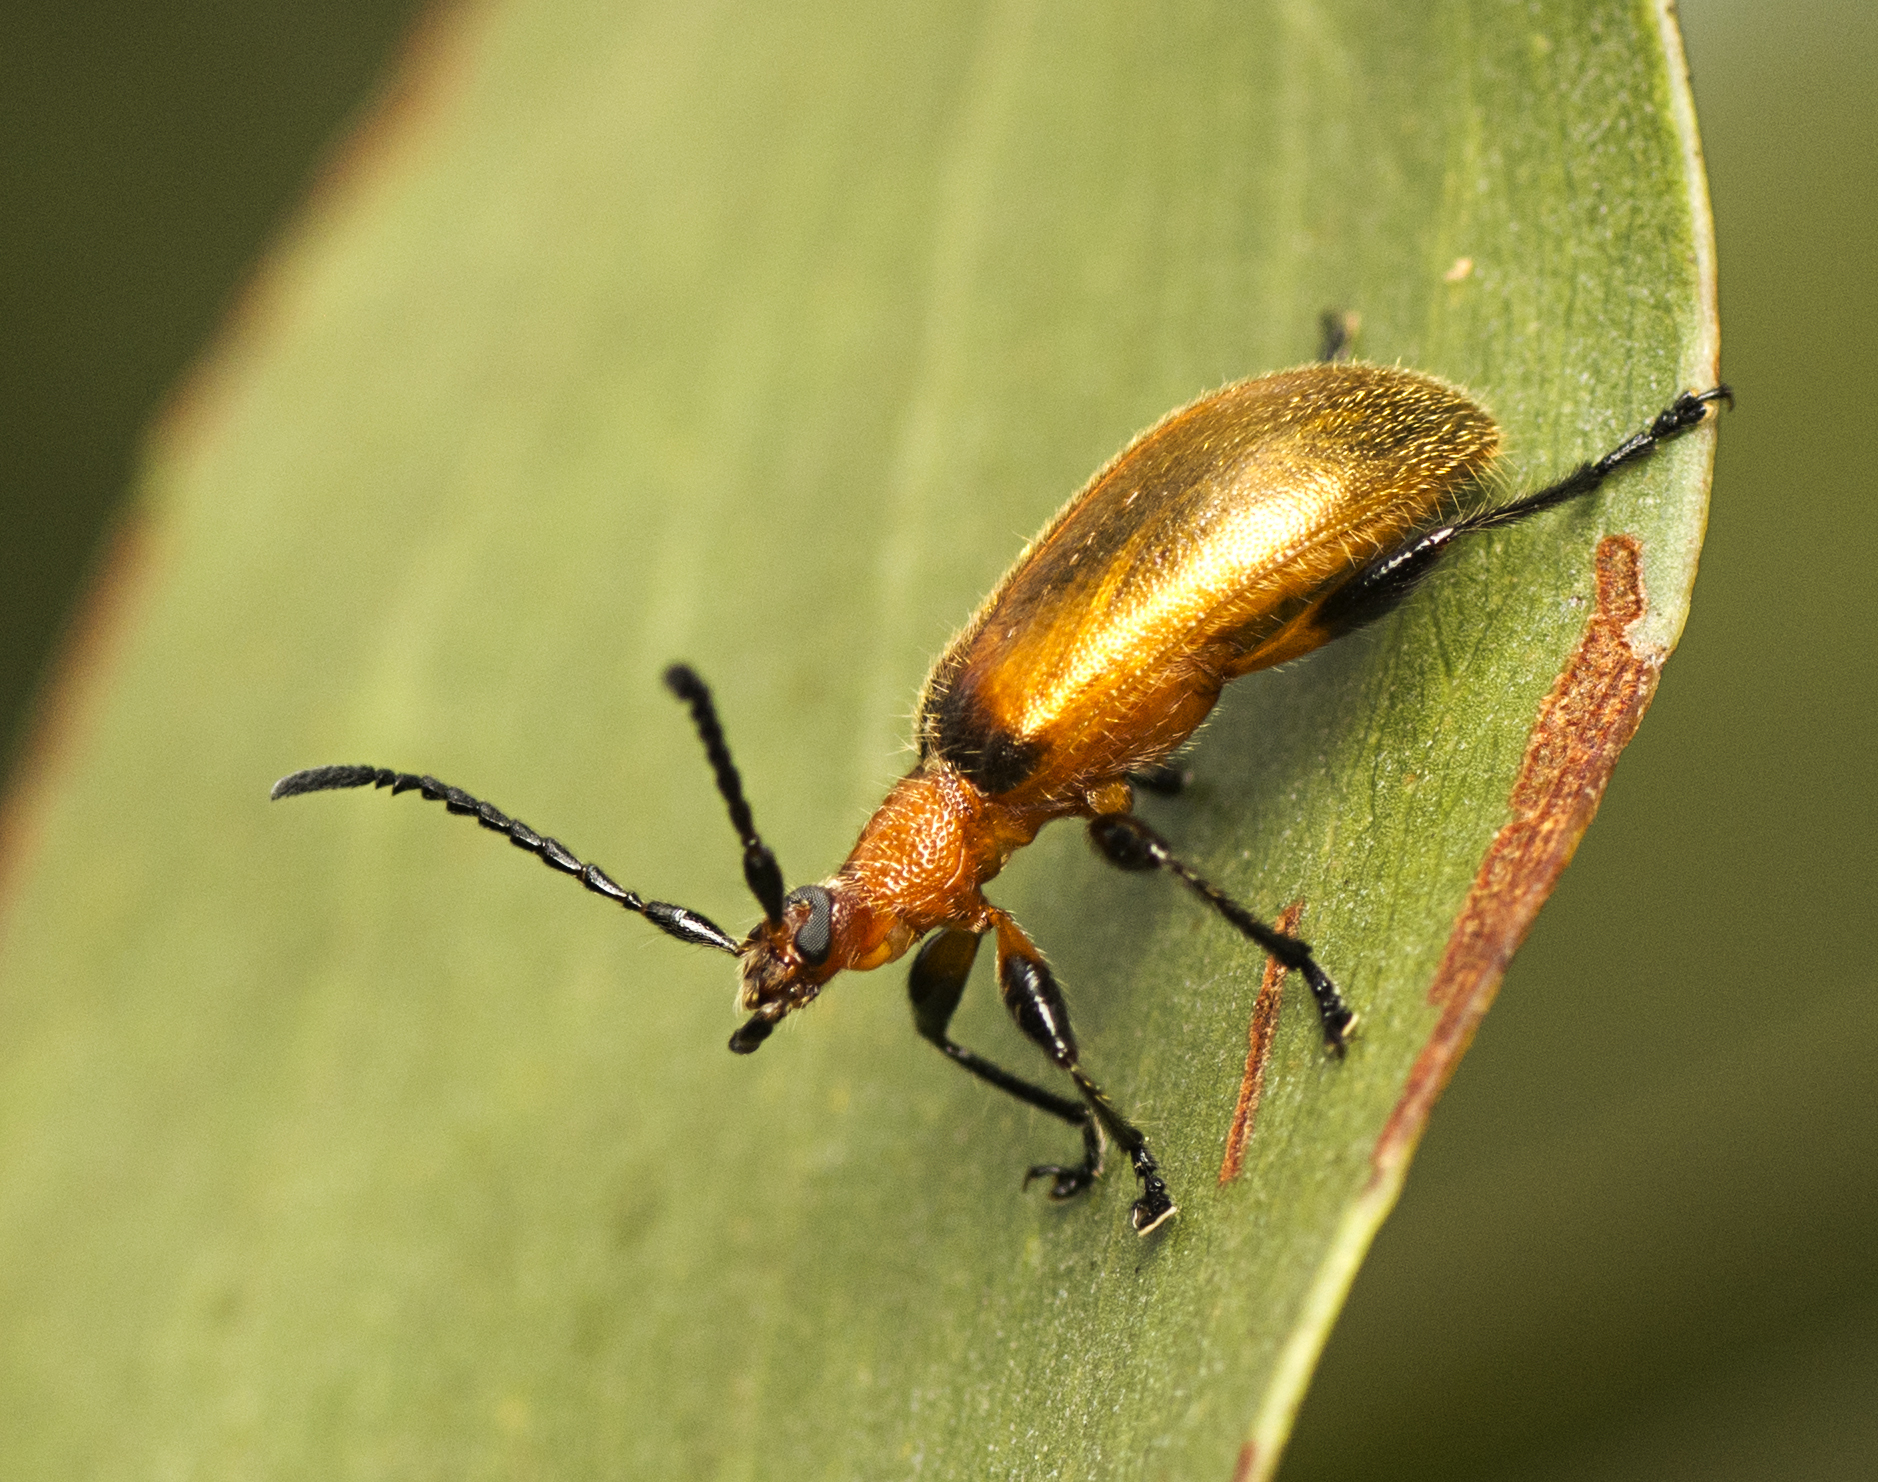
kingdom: Animalia
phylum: Arthropoda
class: Insecta
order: Coleoptera
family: Tenebrionidae
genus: Ecnolagria
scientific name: Ecnolagria
